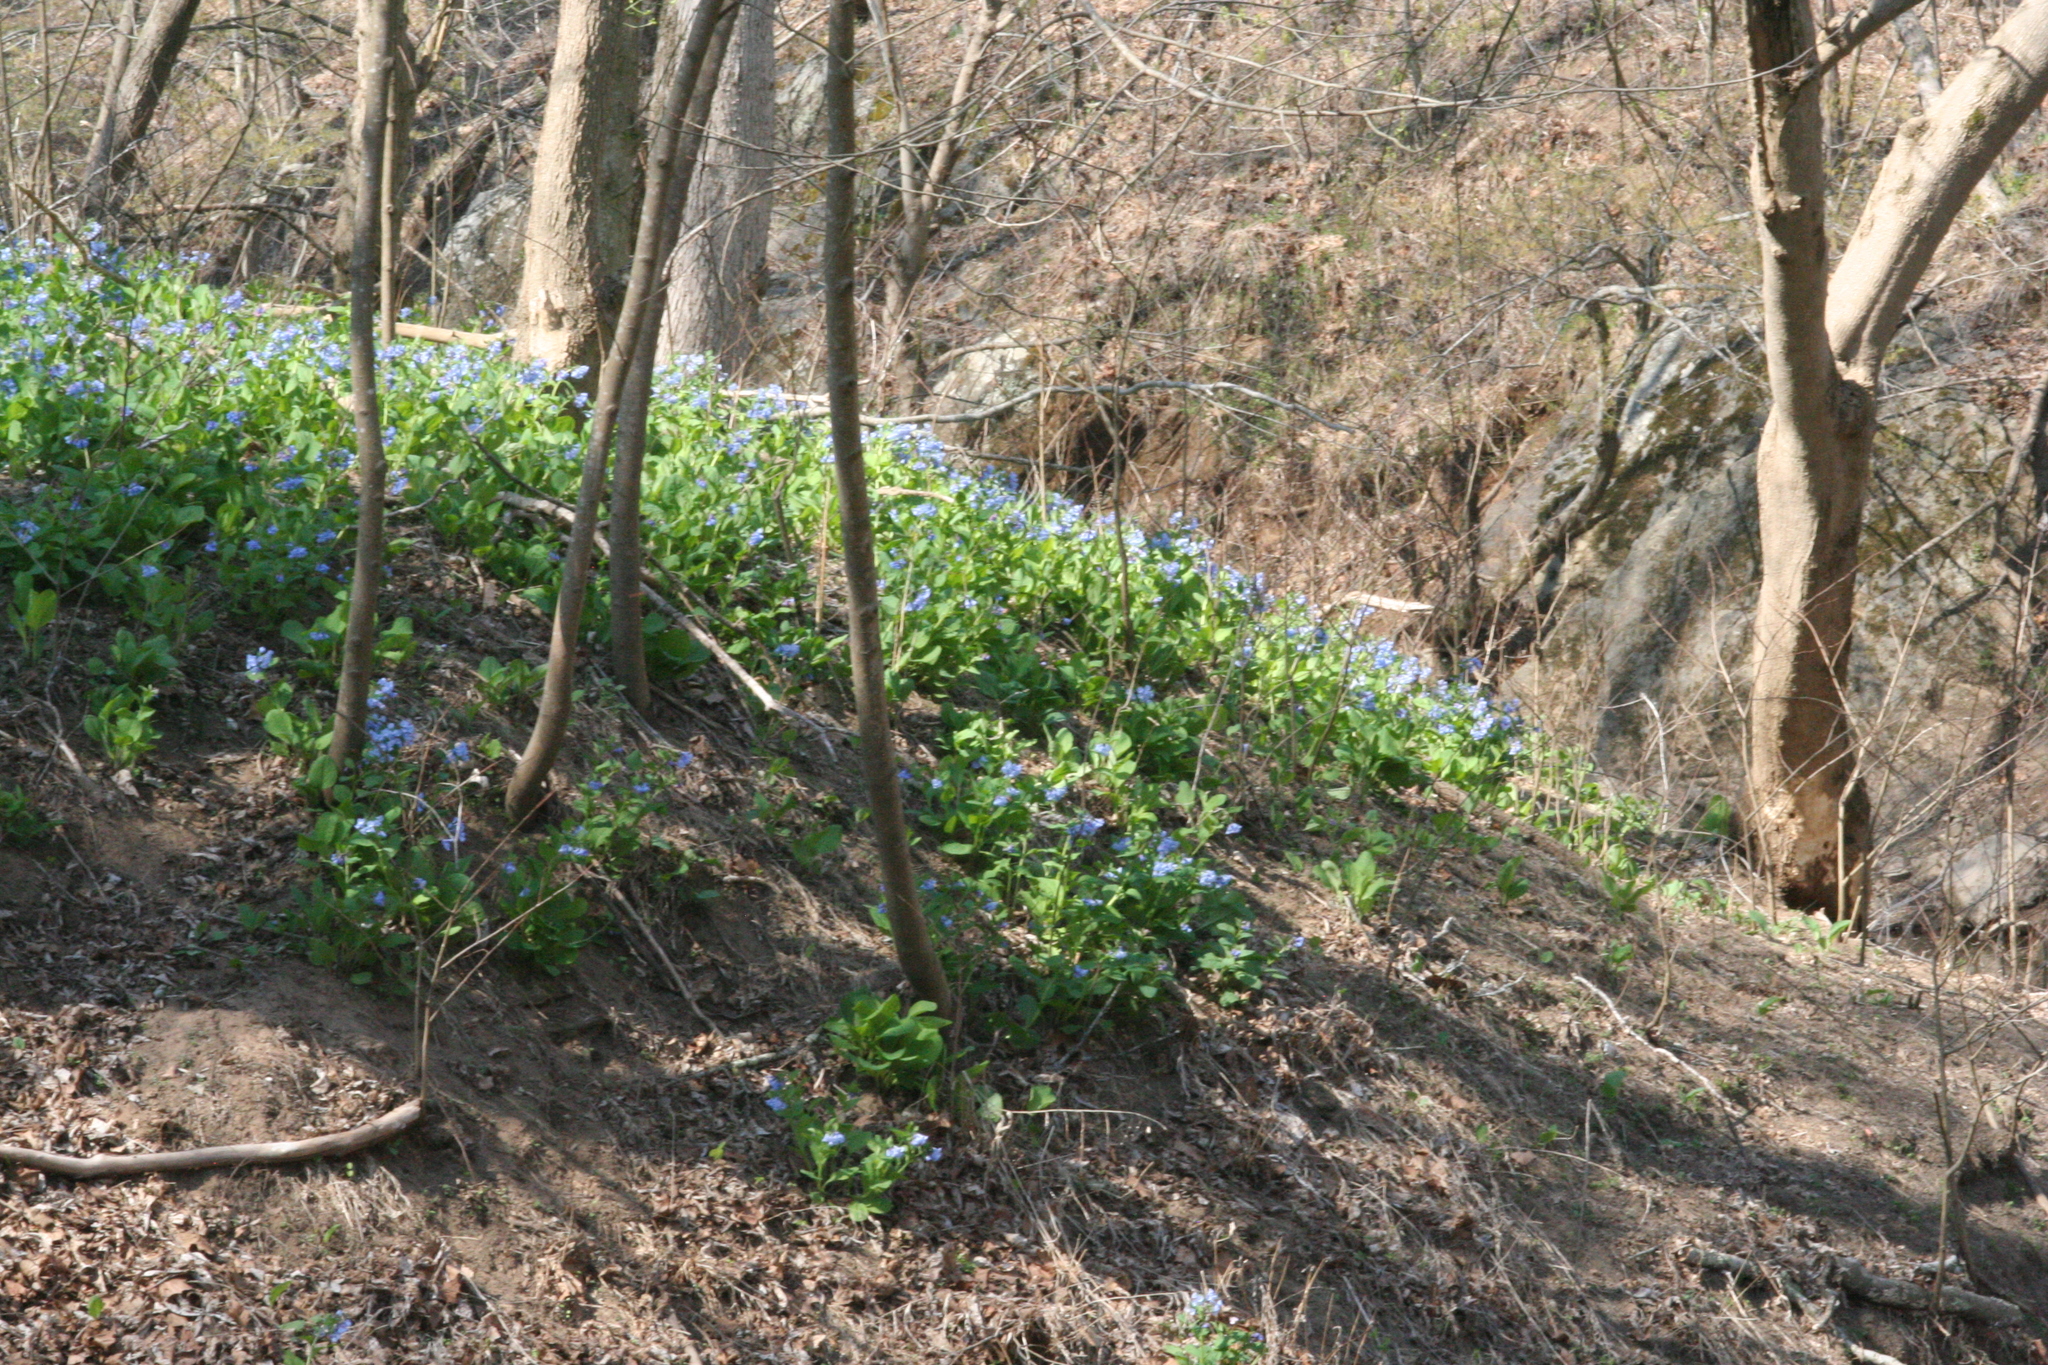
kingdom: Plantae
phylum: Tracheophyta
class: Magnoliopsida
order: Boraginales
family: Boraginaceae
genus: Mertensia
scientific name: Mertensia virginica
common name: Virginia bluebells
